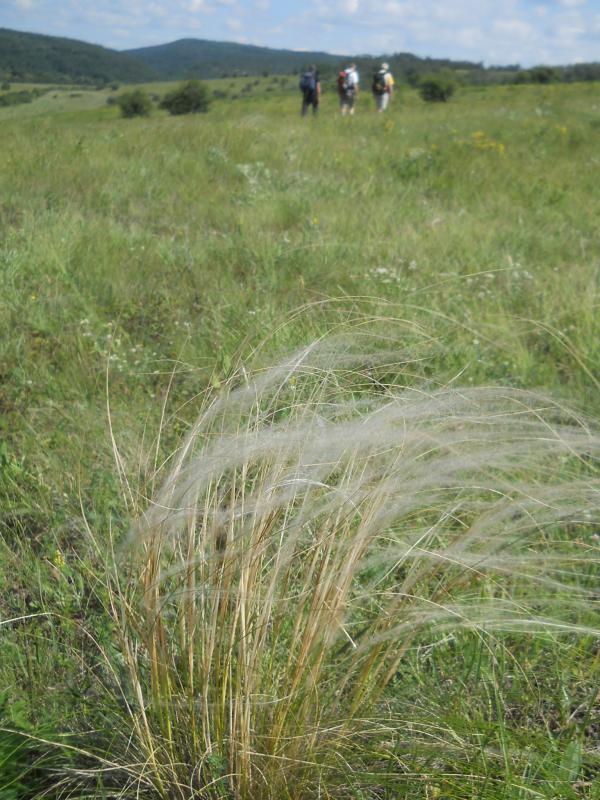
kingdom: Plantae
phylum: Tracheophyta
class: Liliopsida
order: Poales
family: Poaceae
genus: Stipa
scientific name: Stipa pennata
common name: European feather grass
